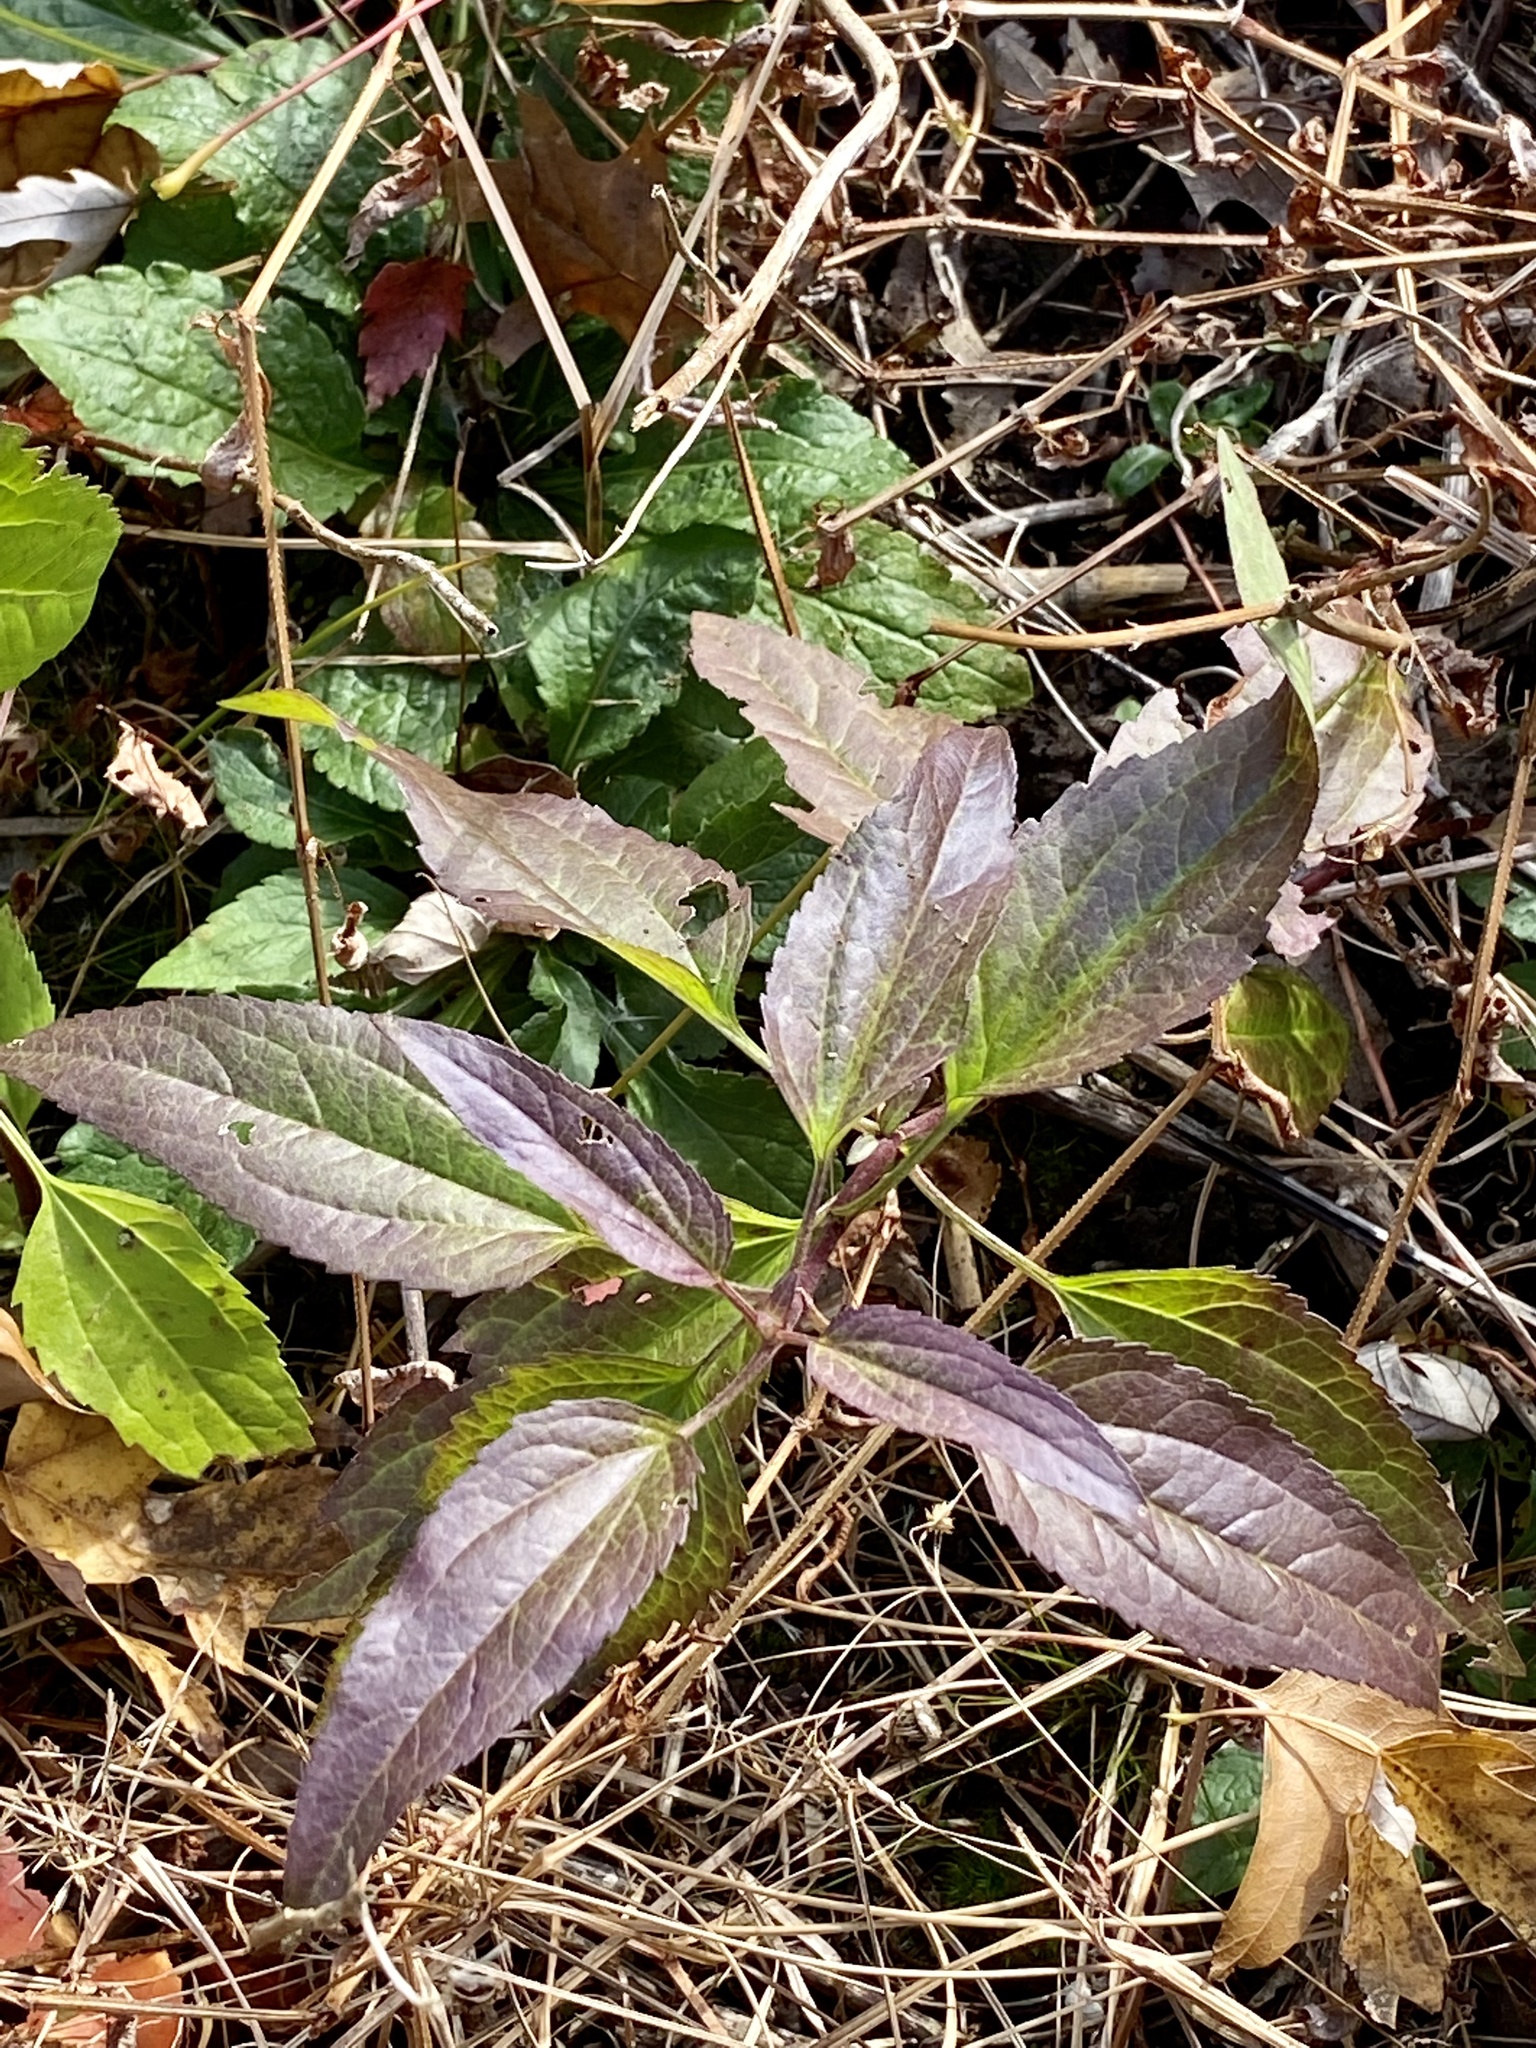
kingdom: Plantae
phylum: Tracheophyta
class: Magnoliopsida
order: Asterales
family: Asteraceae
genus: Eupatorium
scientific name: Eupatorium serotinum
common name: Late boneset
